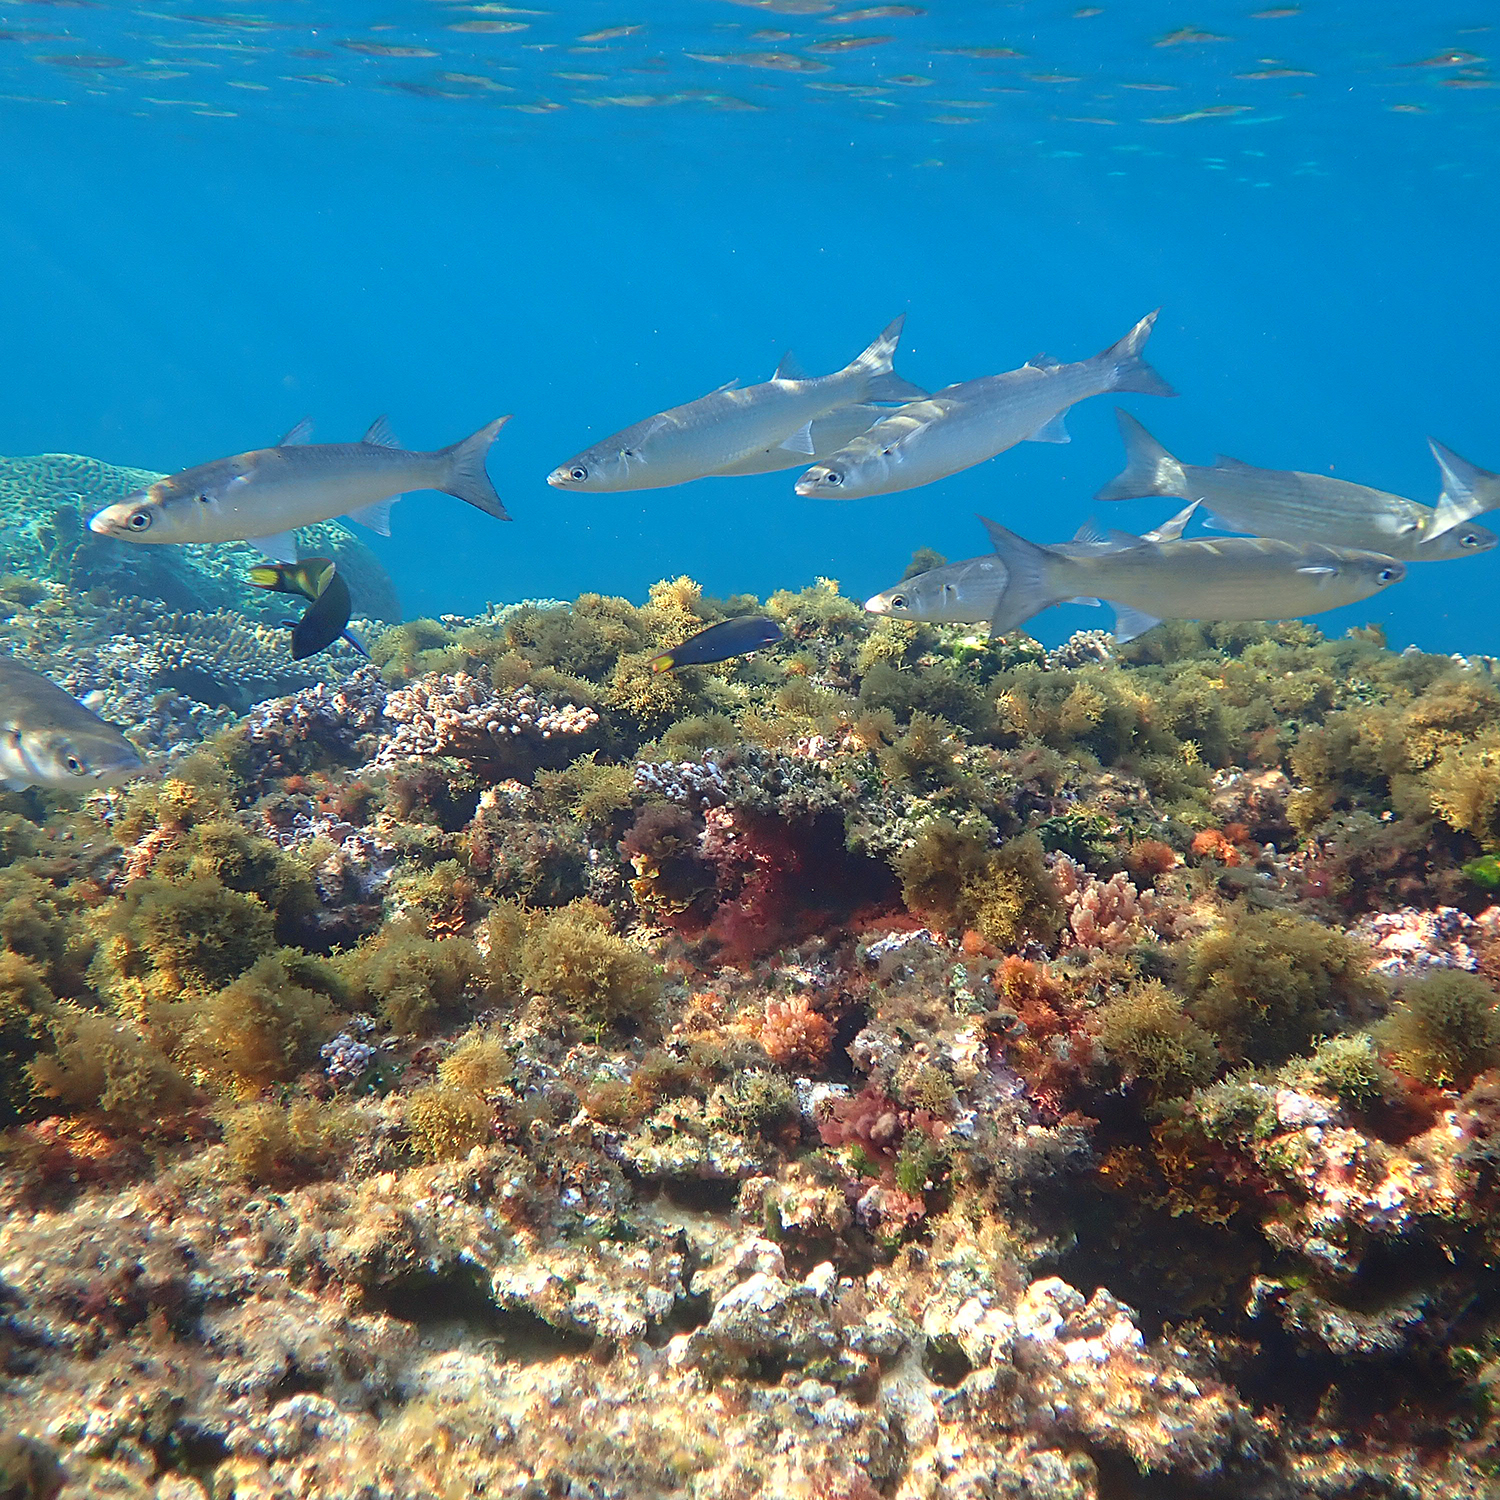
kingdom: Animalia
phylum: Chordata
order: Mugiliformes
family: Mugilidae
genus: Myxus
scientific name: Myxus elongatus
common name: Sand grey mullet
